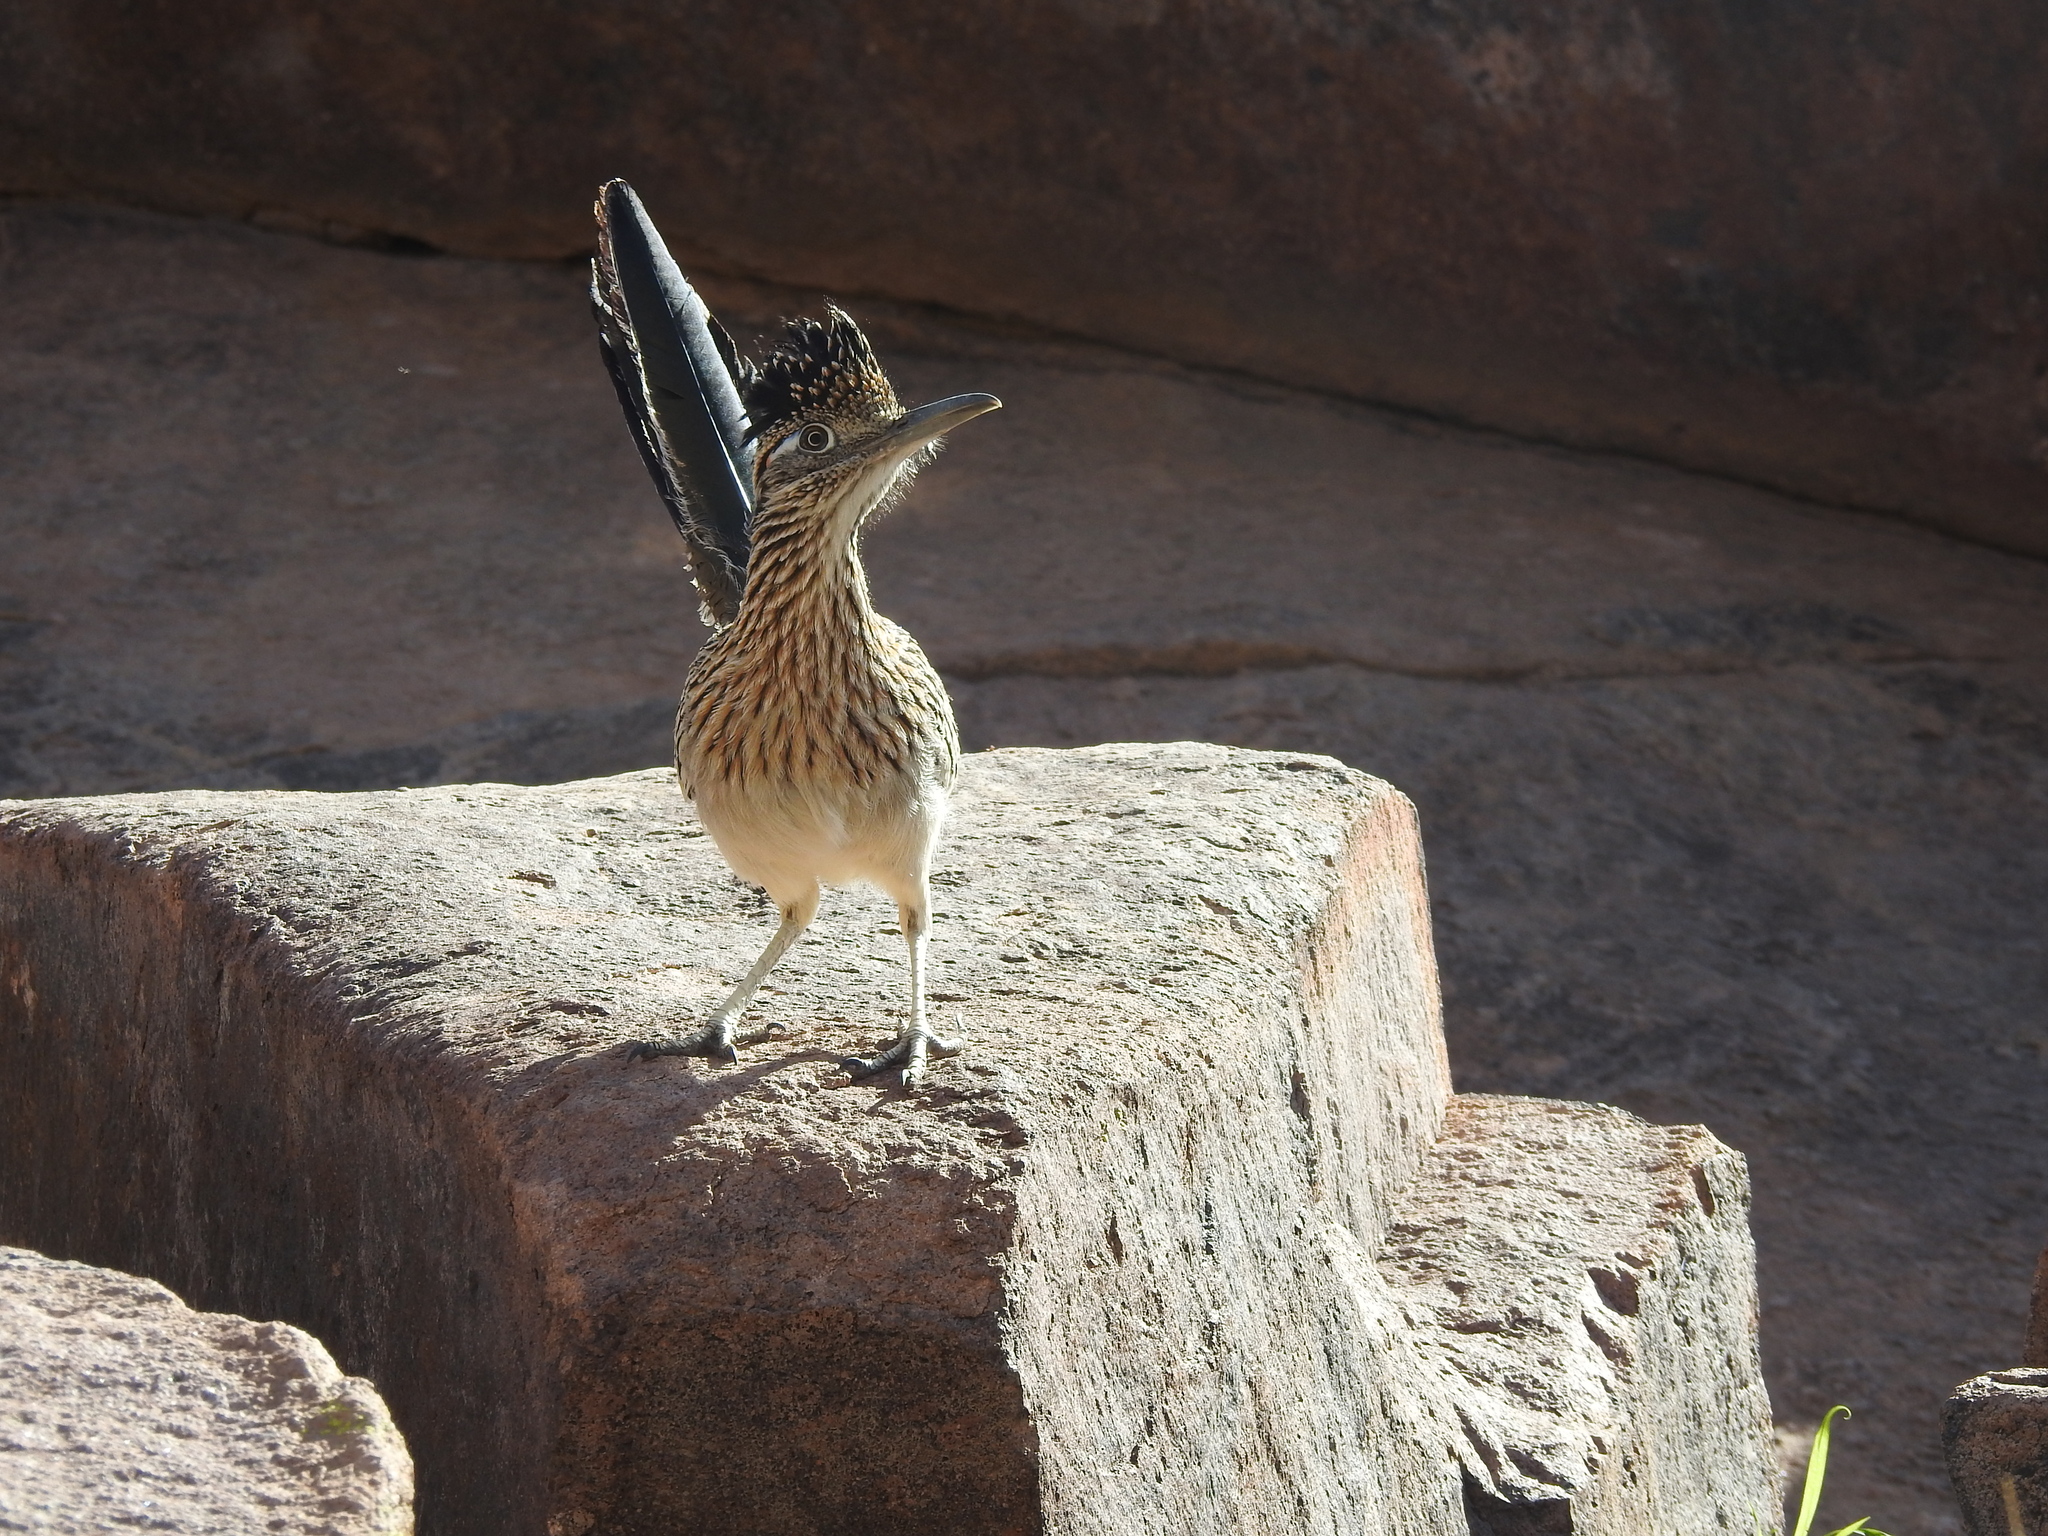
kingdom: Animalia
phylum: Chordata
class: Aves
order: Cuculiformes
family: Cuculidae
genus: Geococcyx
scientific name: Geococcyx californianus
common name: Greater roadrunner
